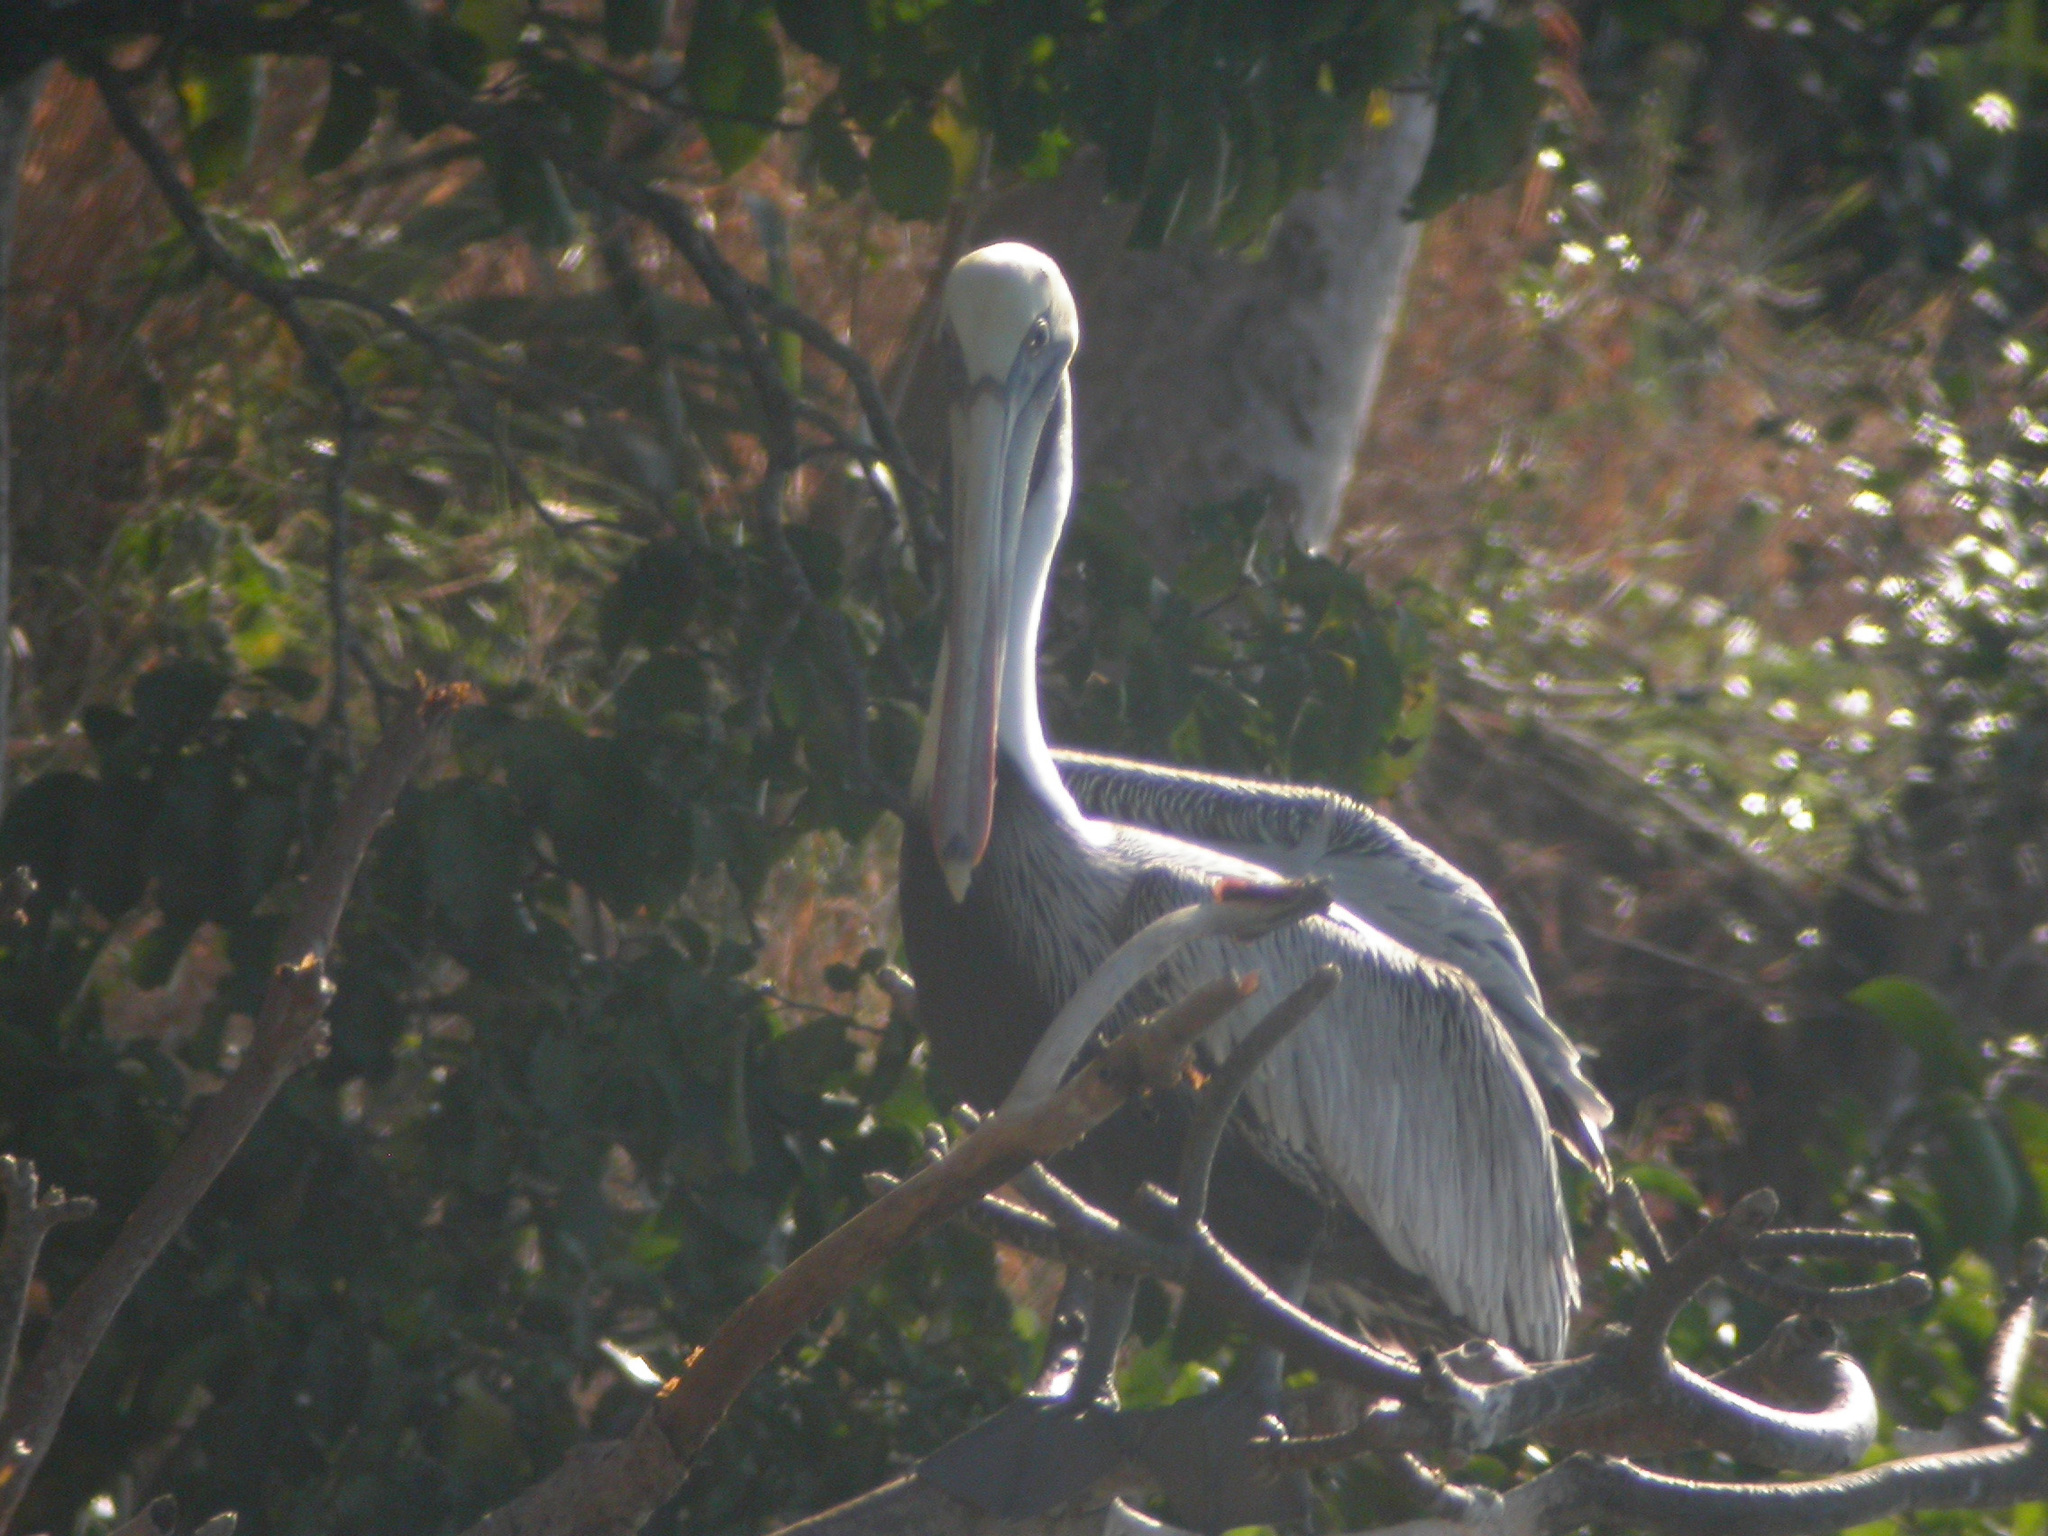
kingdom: Animalia
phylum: Chordata
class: Aves
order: Pelecaniformes
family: Pelecanidae
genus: Pelecanus
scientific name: Pelecanus occidentalis
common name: Brown pelican
